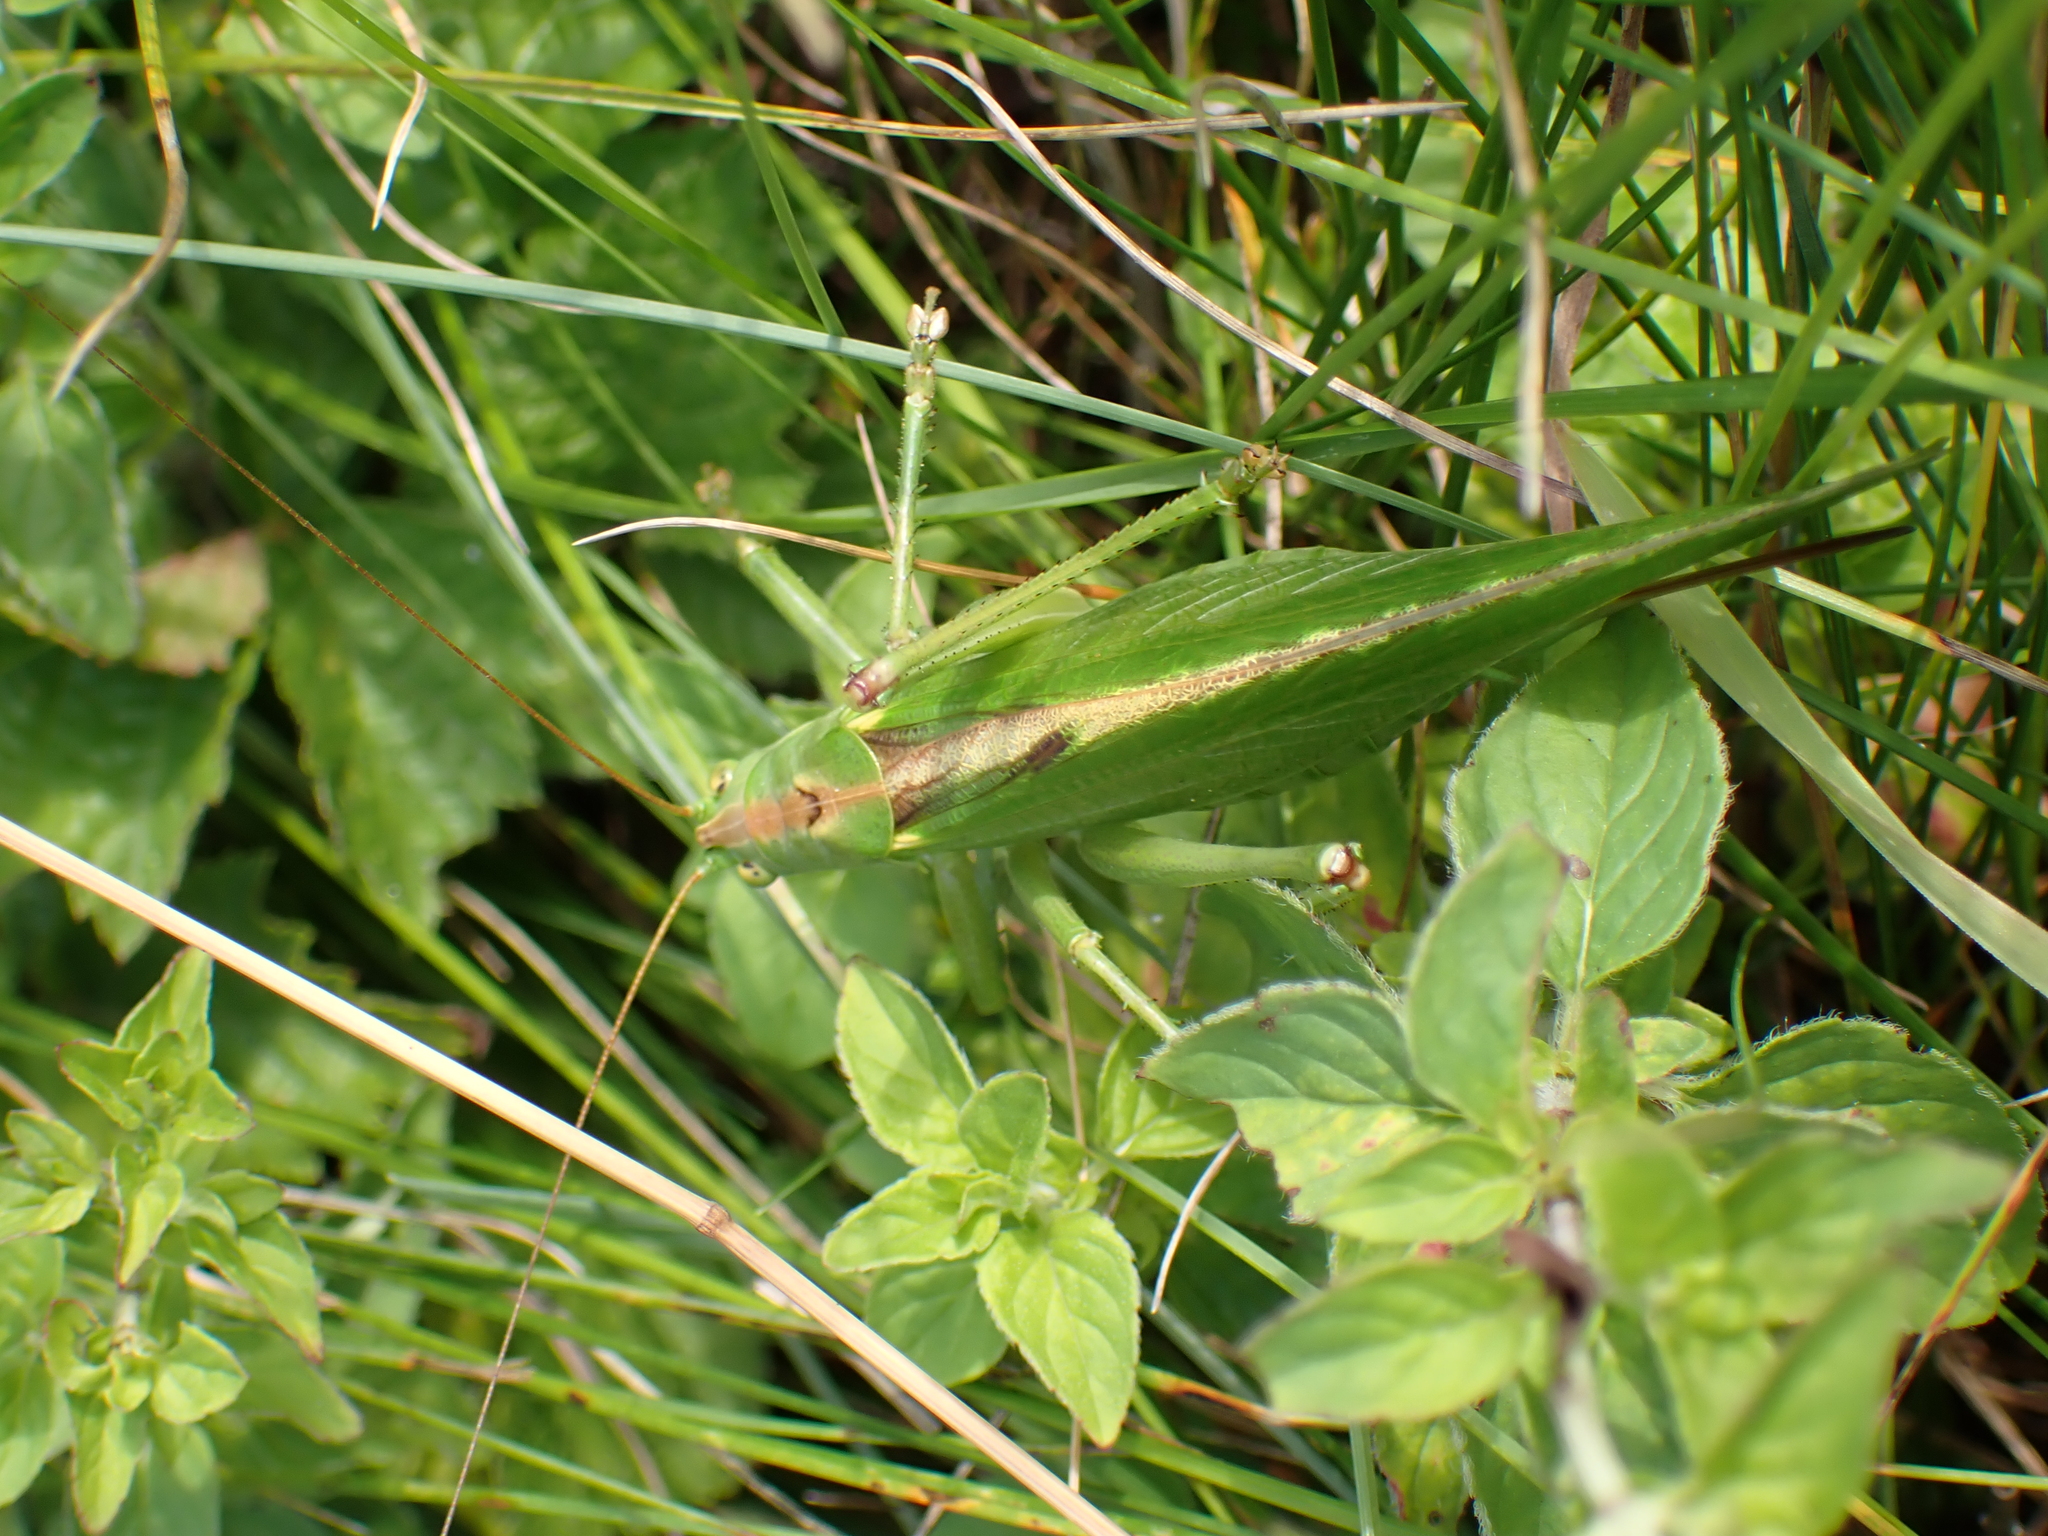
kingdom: Animalia
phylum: Arthropoda
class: Insecta
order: Orthoptera
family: Tettigoniidae
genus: Tettigonia
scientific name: Tettigonia viridissima
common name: Great green bush-cricket
